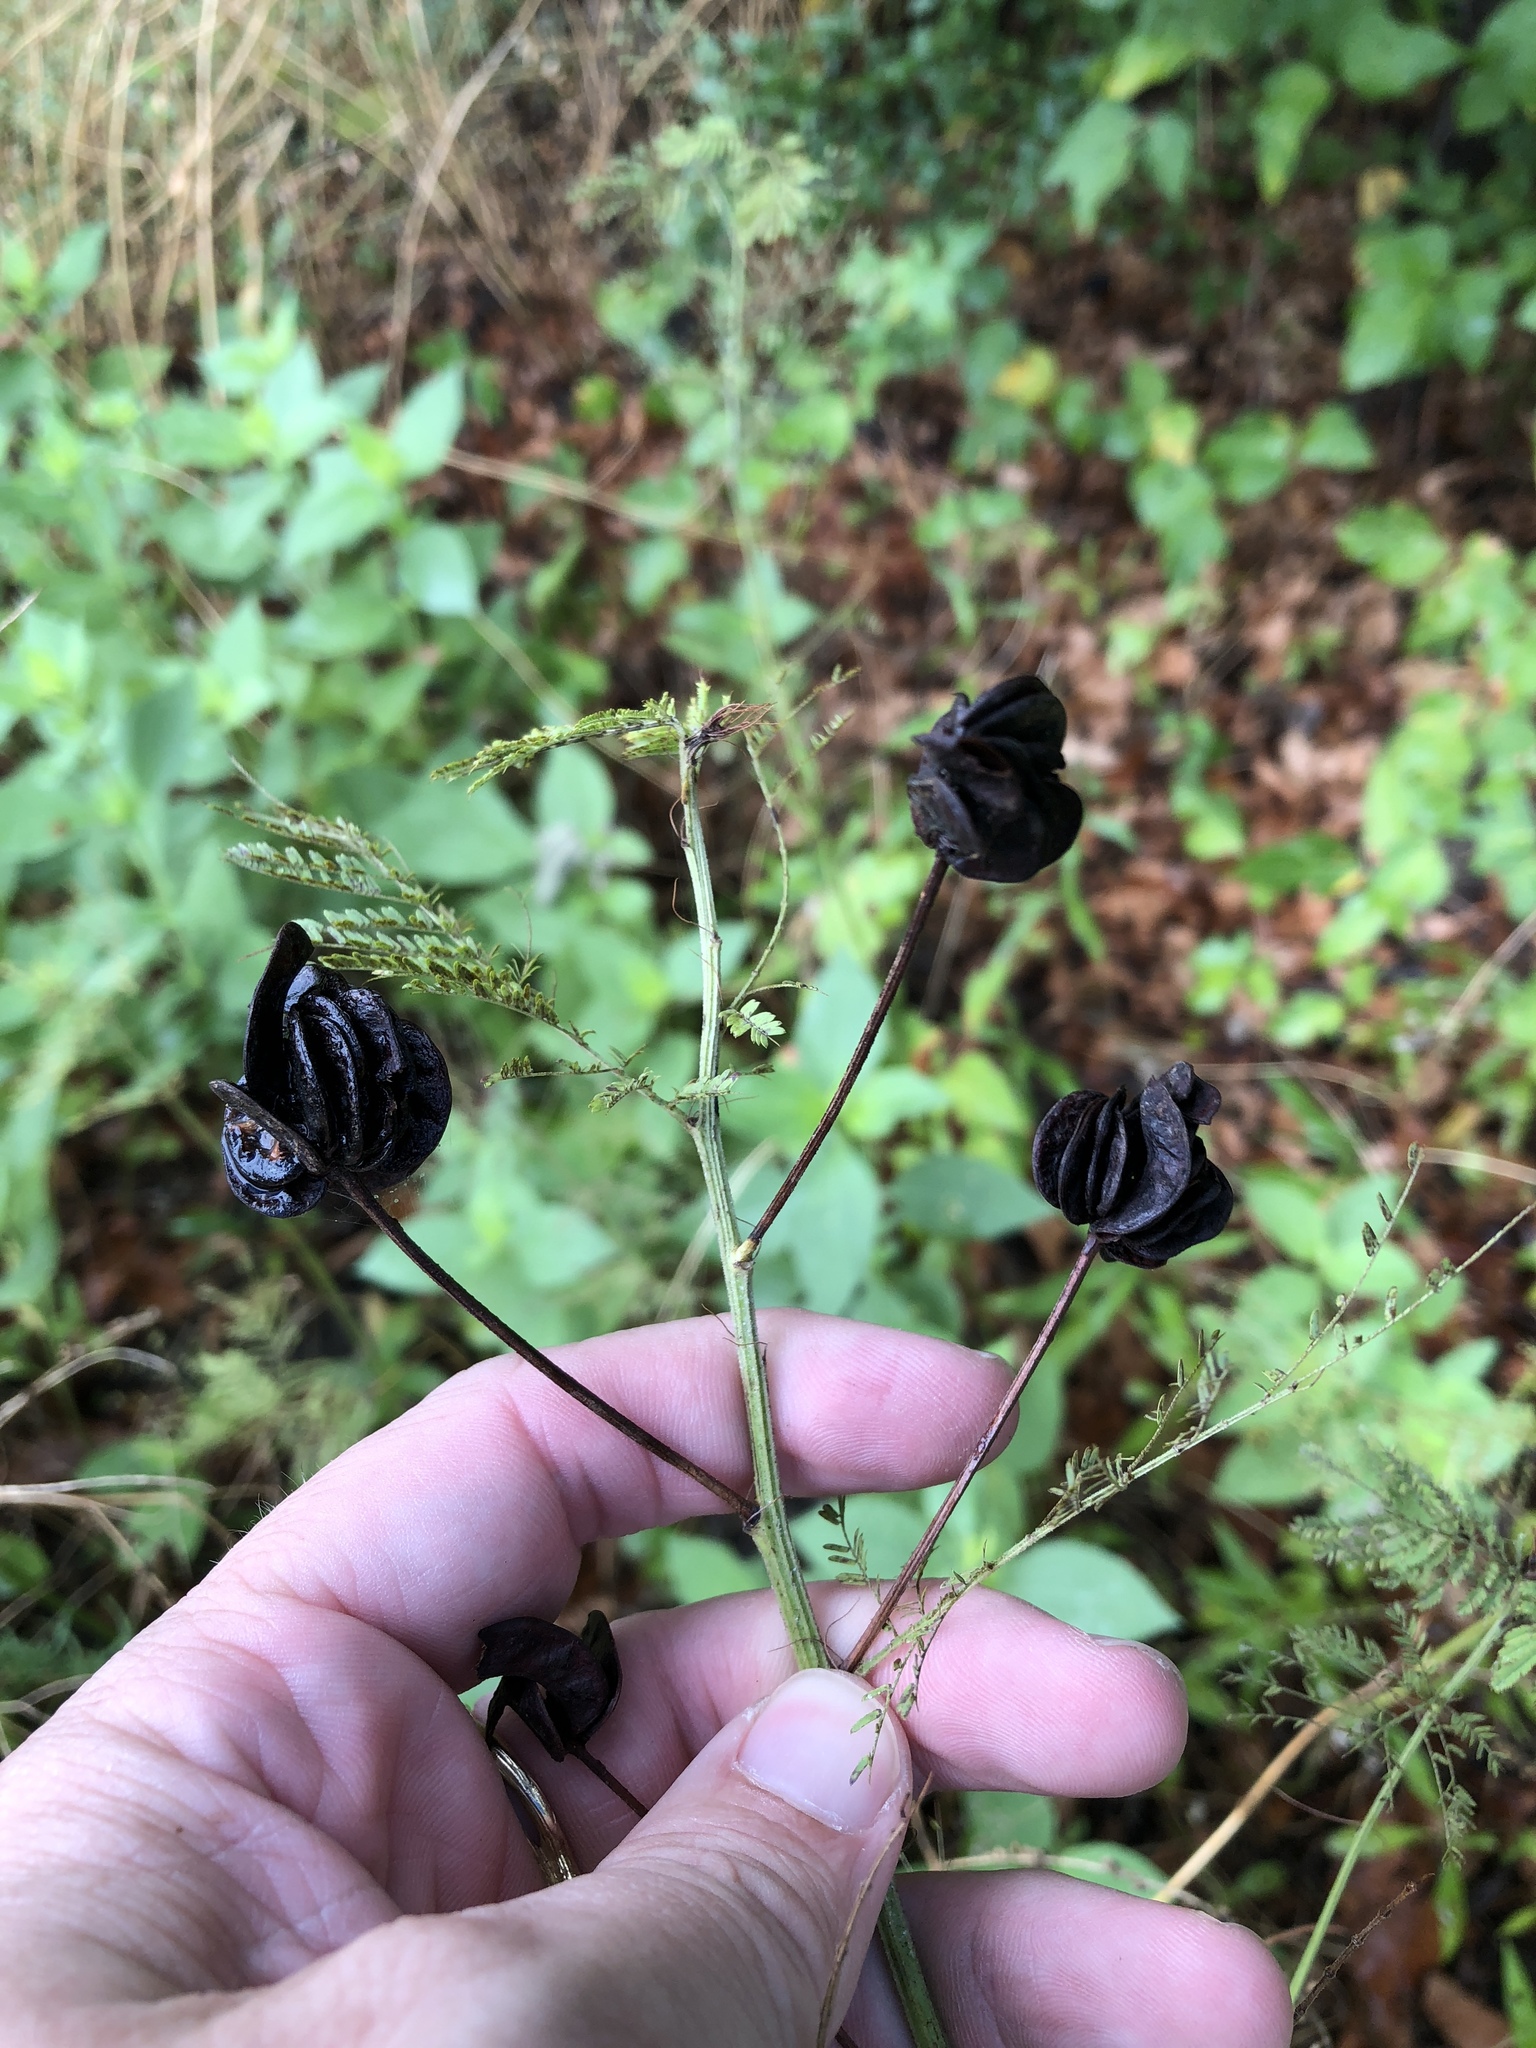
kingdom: Plantae
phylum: Tracheophyta
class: Magnoliopsida
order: Fabales
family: Fabaceae
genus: Desmanthus
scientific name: Desmanthus illinoensis
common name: Illinois bundle-flower
